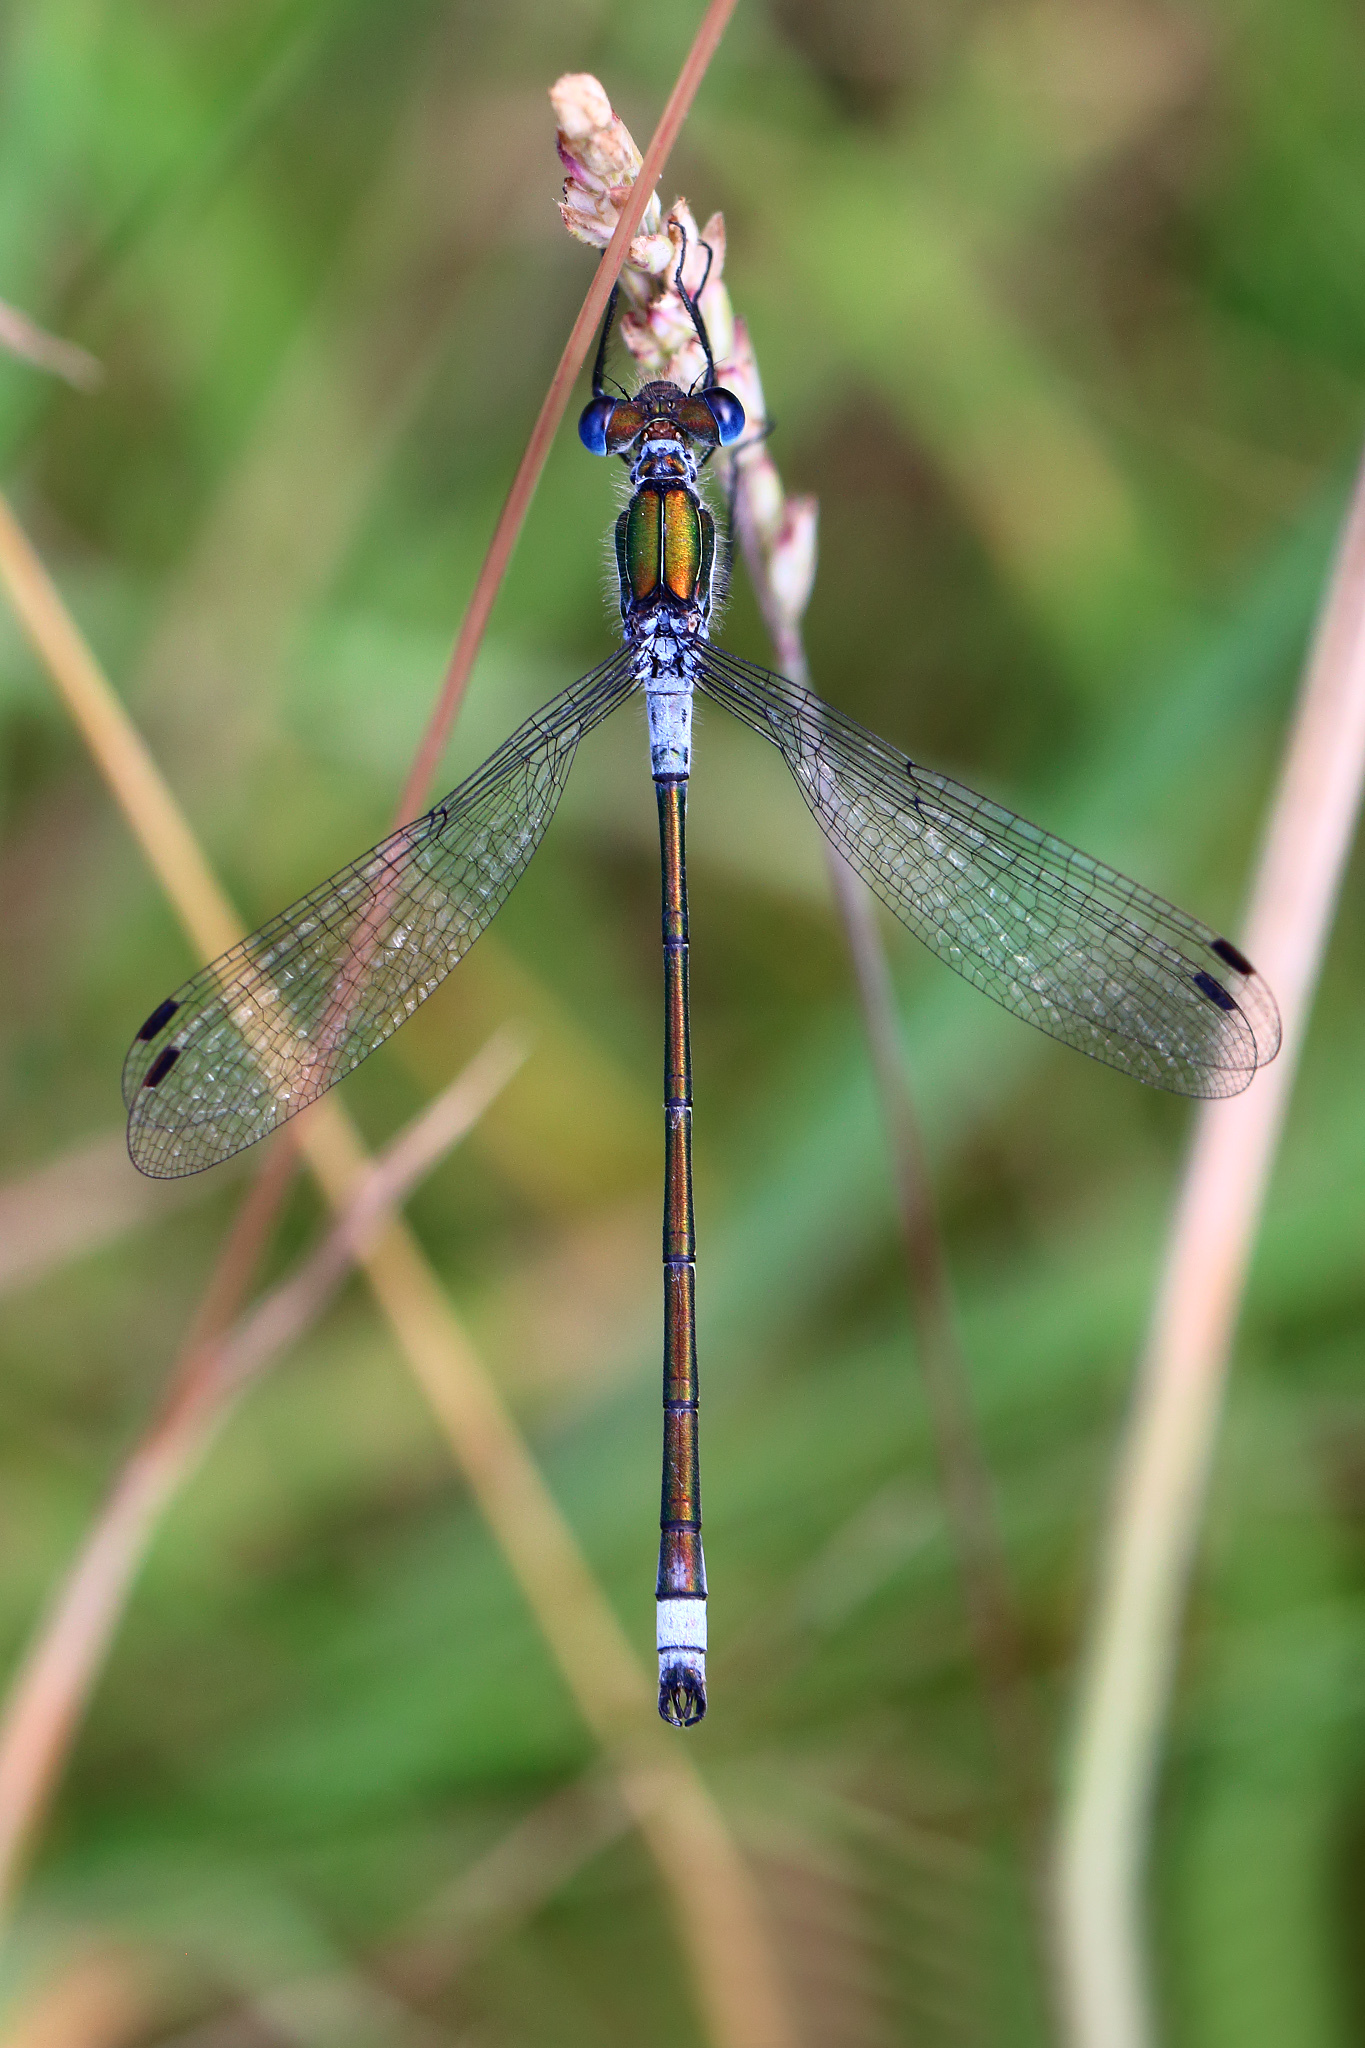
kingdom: Animalia
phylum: Arthropoda
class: Insecta
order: Odonata
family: Lestidae
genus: Lestes
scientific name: Lestes sponsa
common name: Common spreadwing
